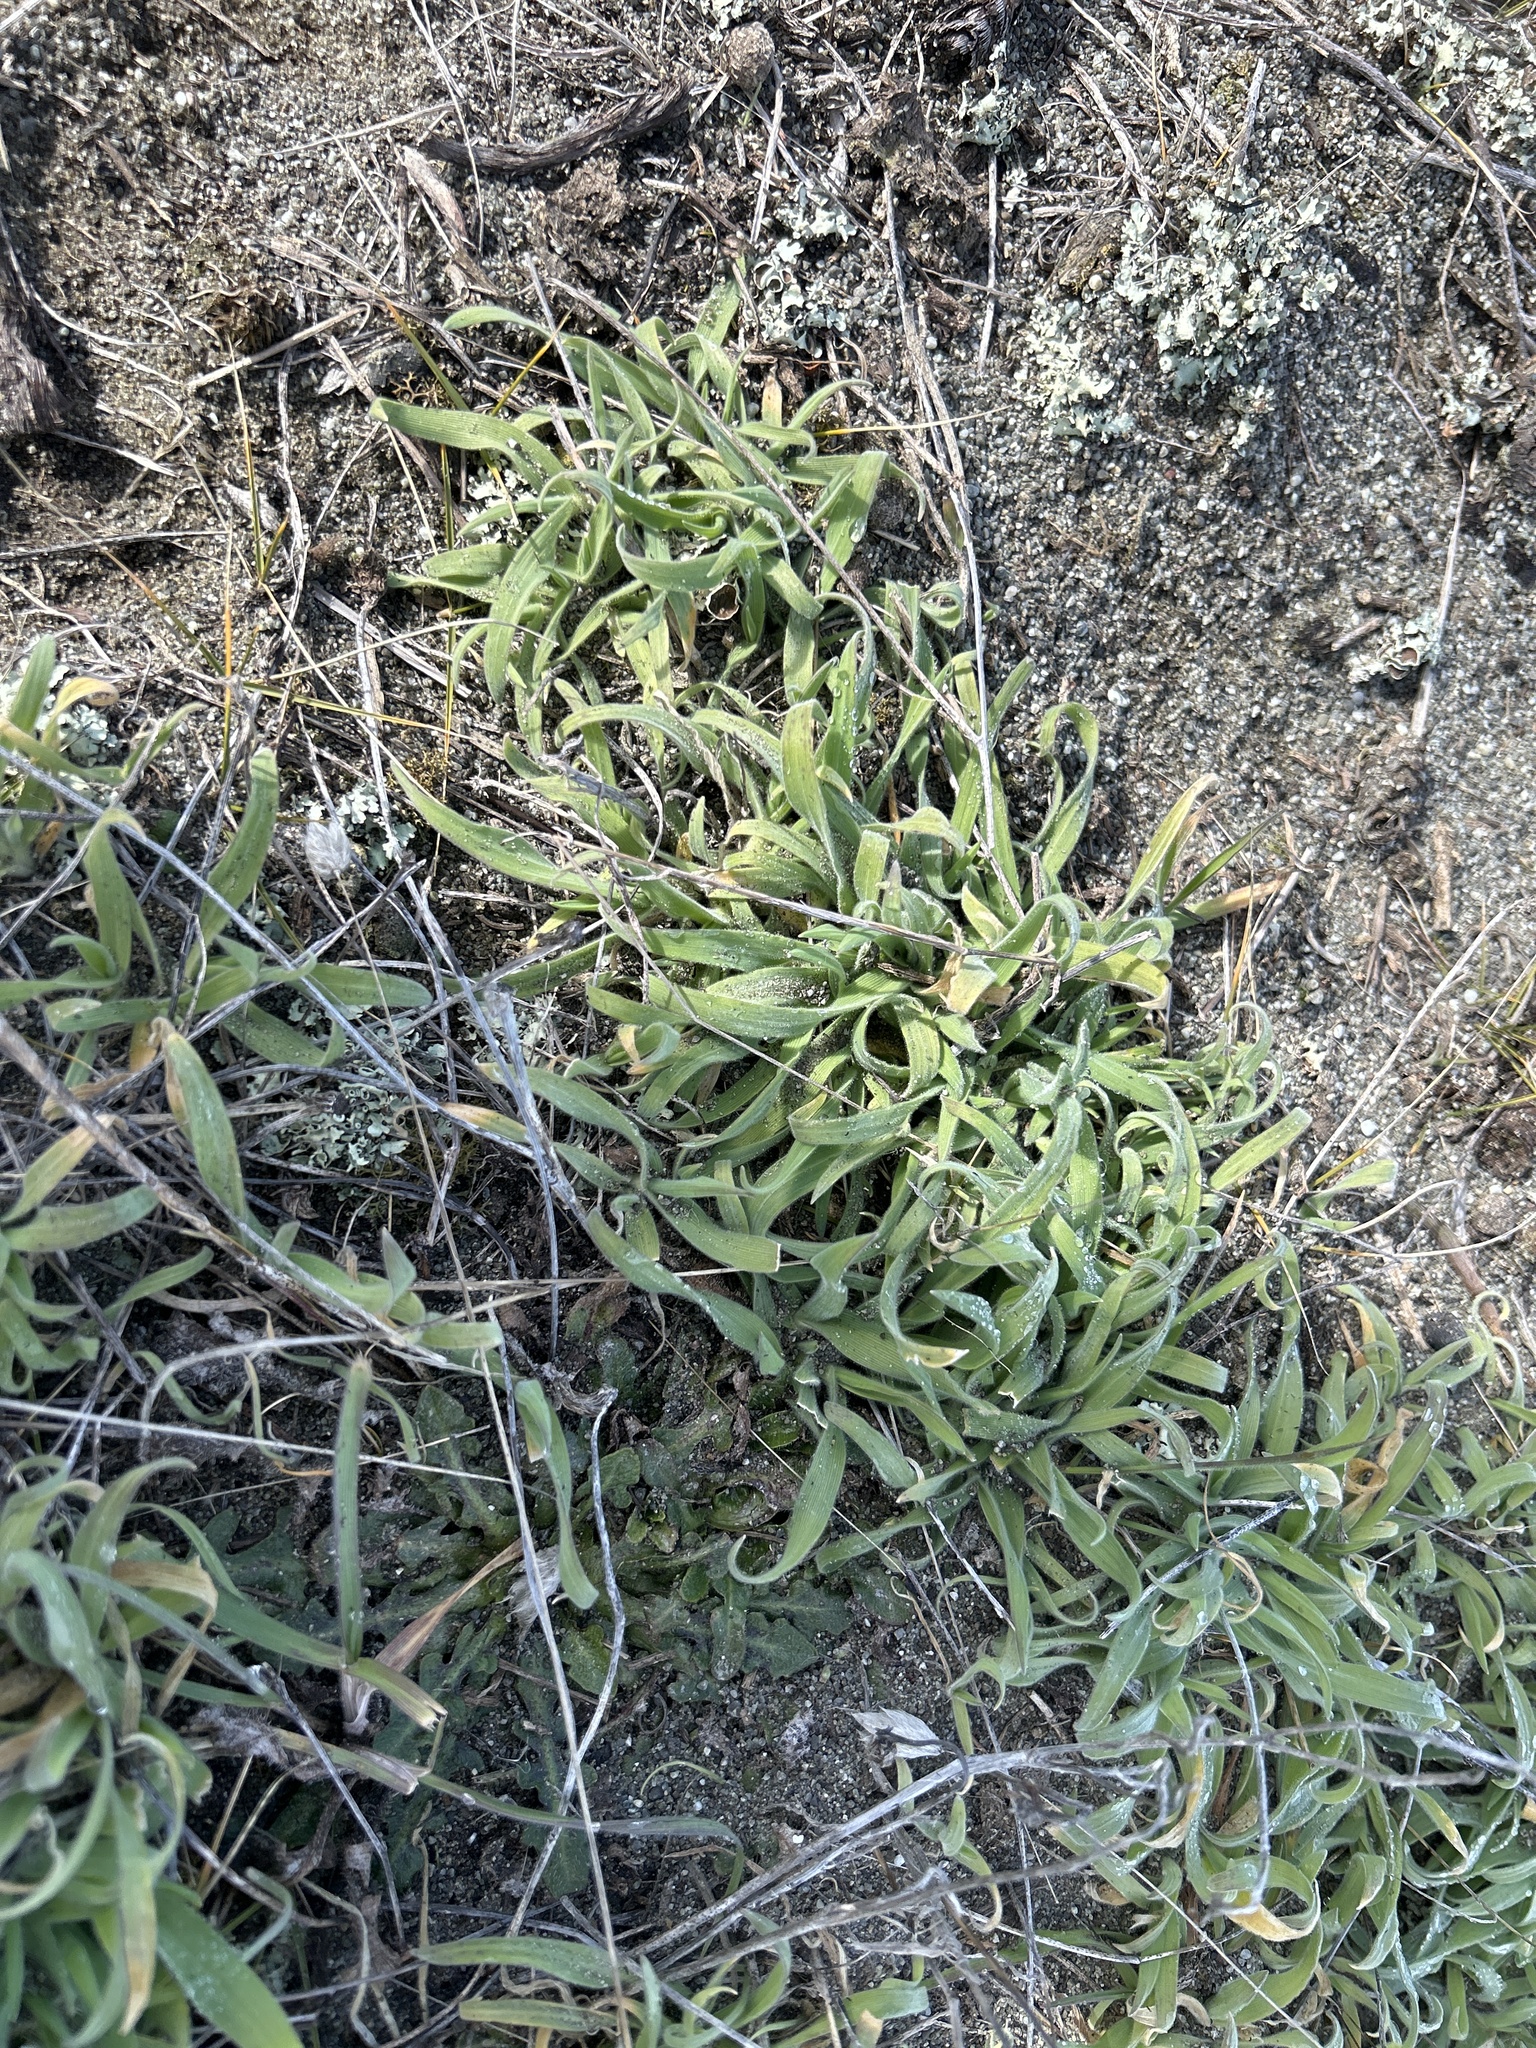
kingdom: Plantae
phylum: Tracheophyta
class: Liliopsida
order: Poales
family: Poaceae
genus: Lagurus
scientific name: Lagurus ovatus
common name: Hare's-tail
